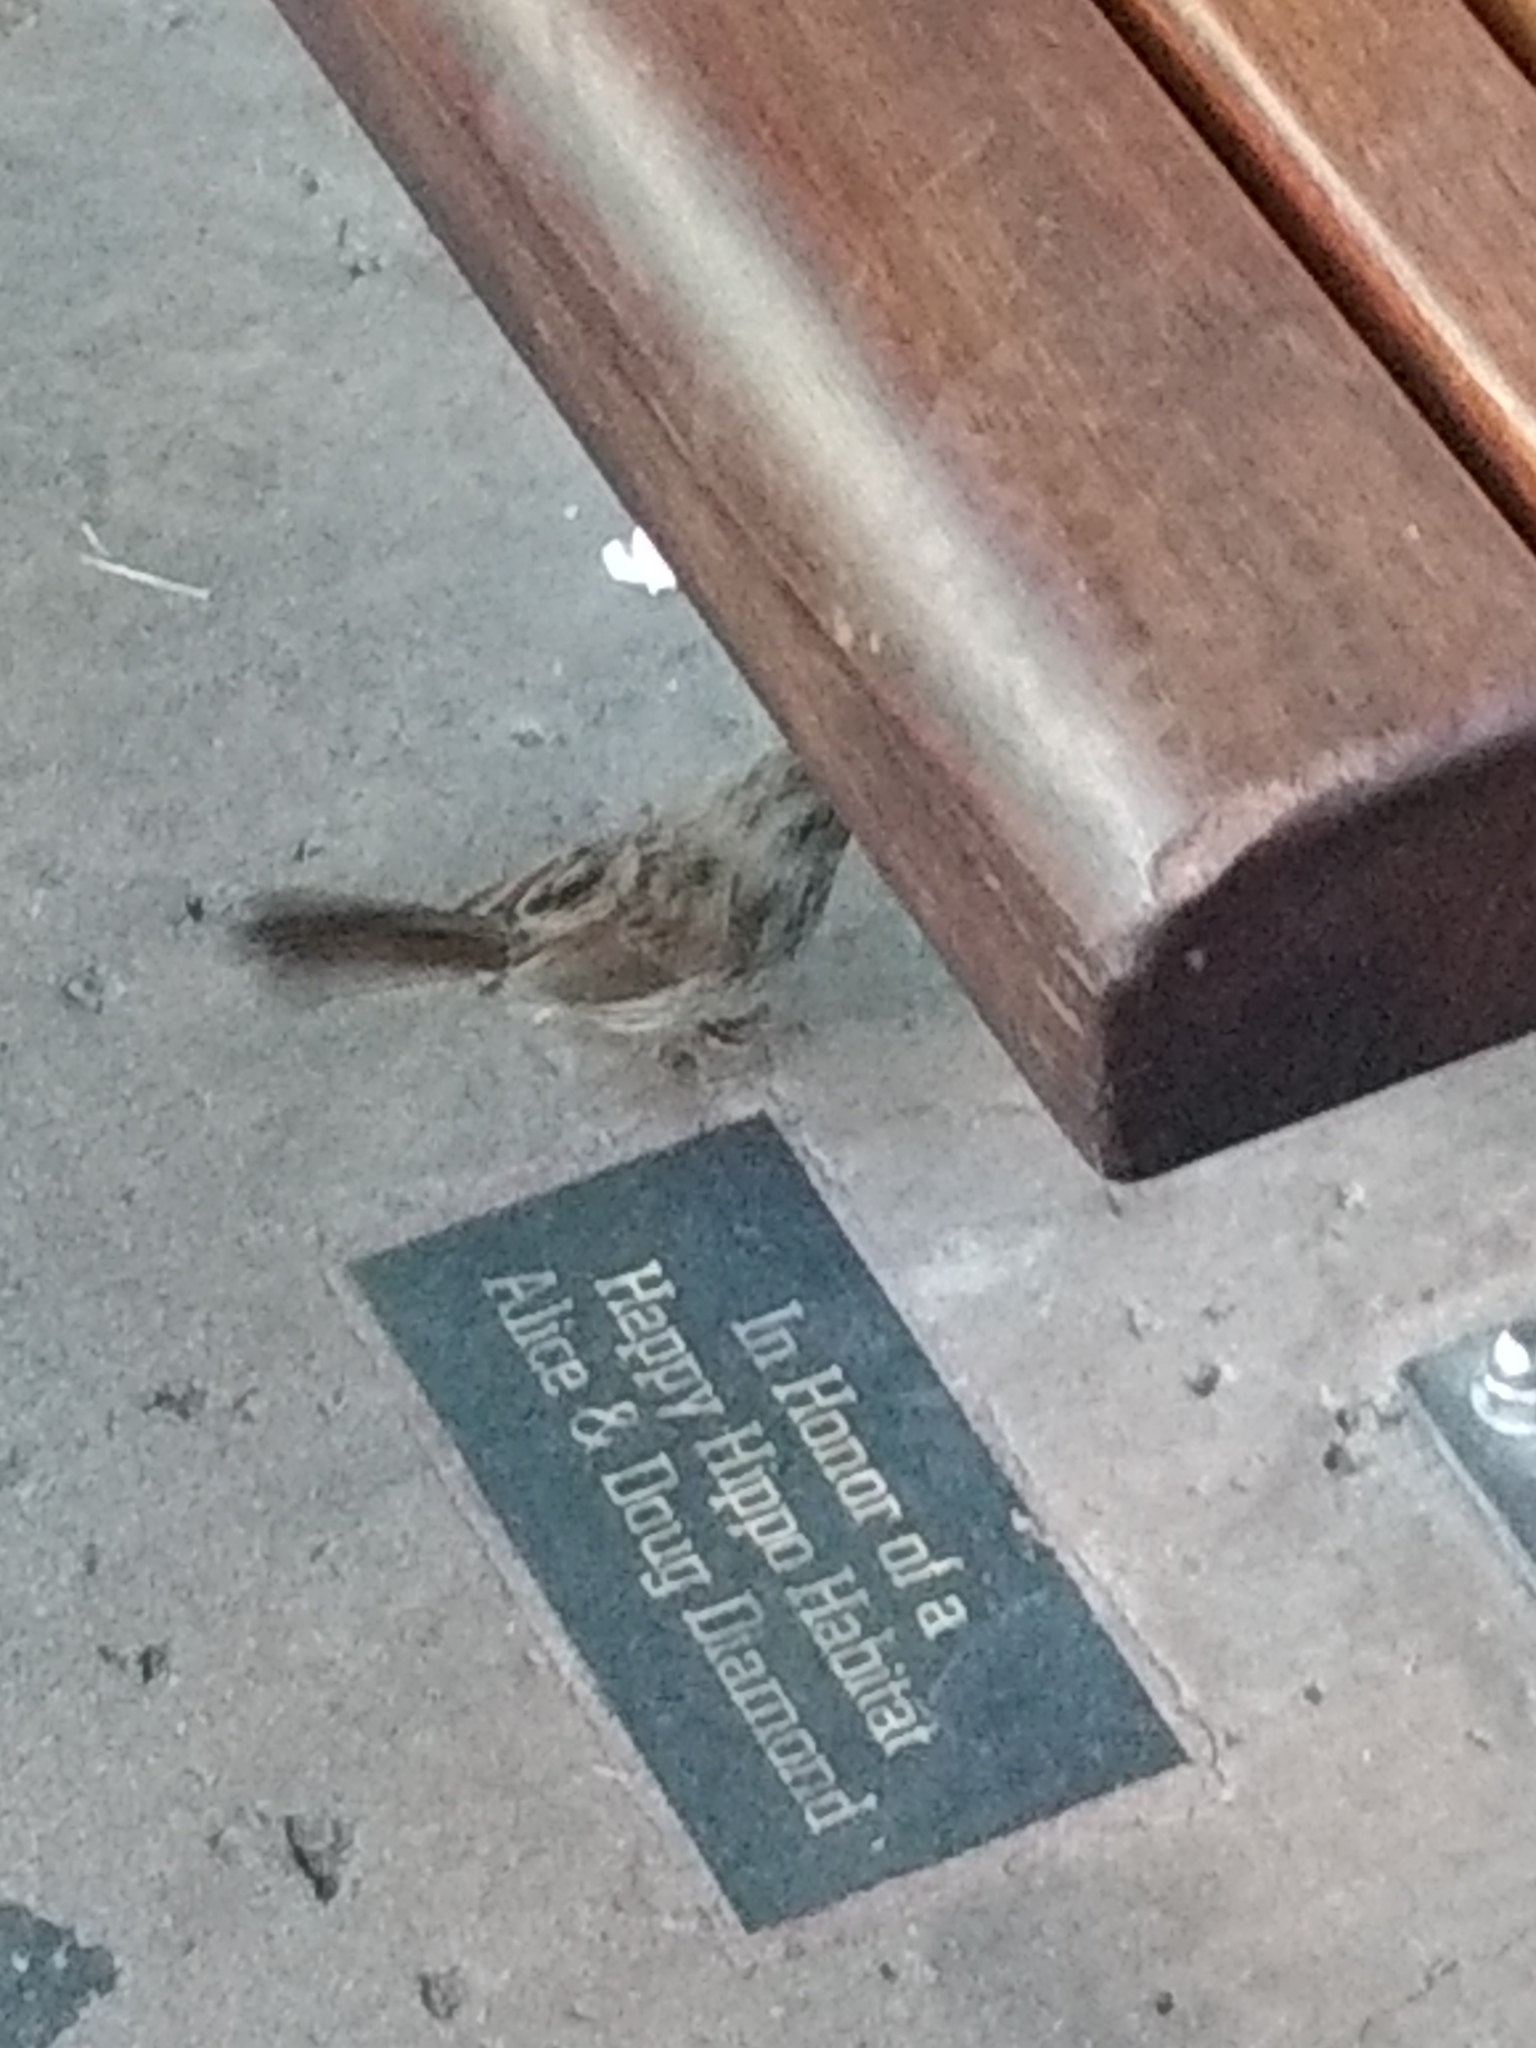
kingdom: Animalia
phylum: Chordata
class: Aves
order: Passeriformes
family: Passerellidae
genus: Melospiza
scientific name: Melospiza melodia
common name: Song sparrow
